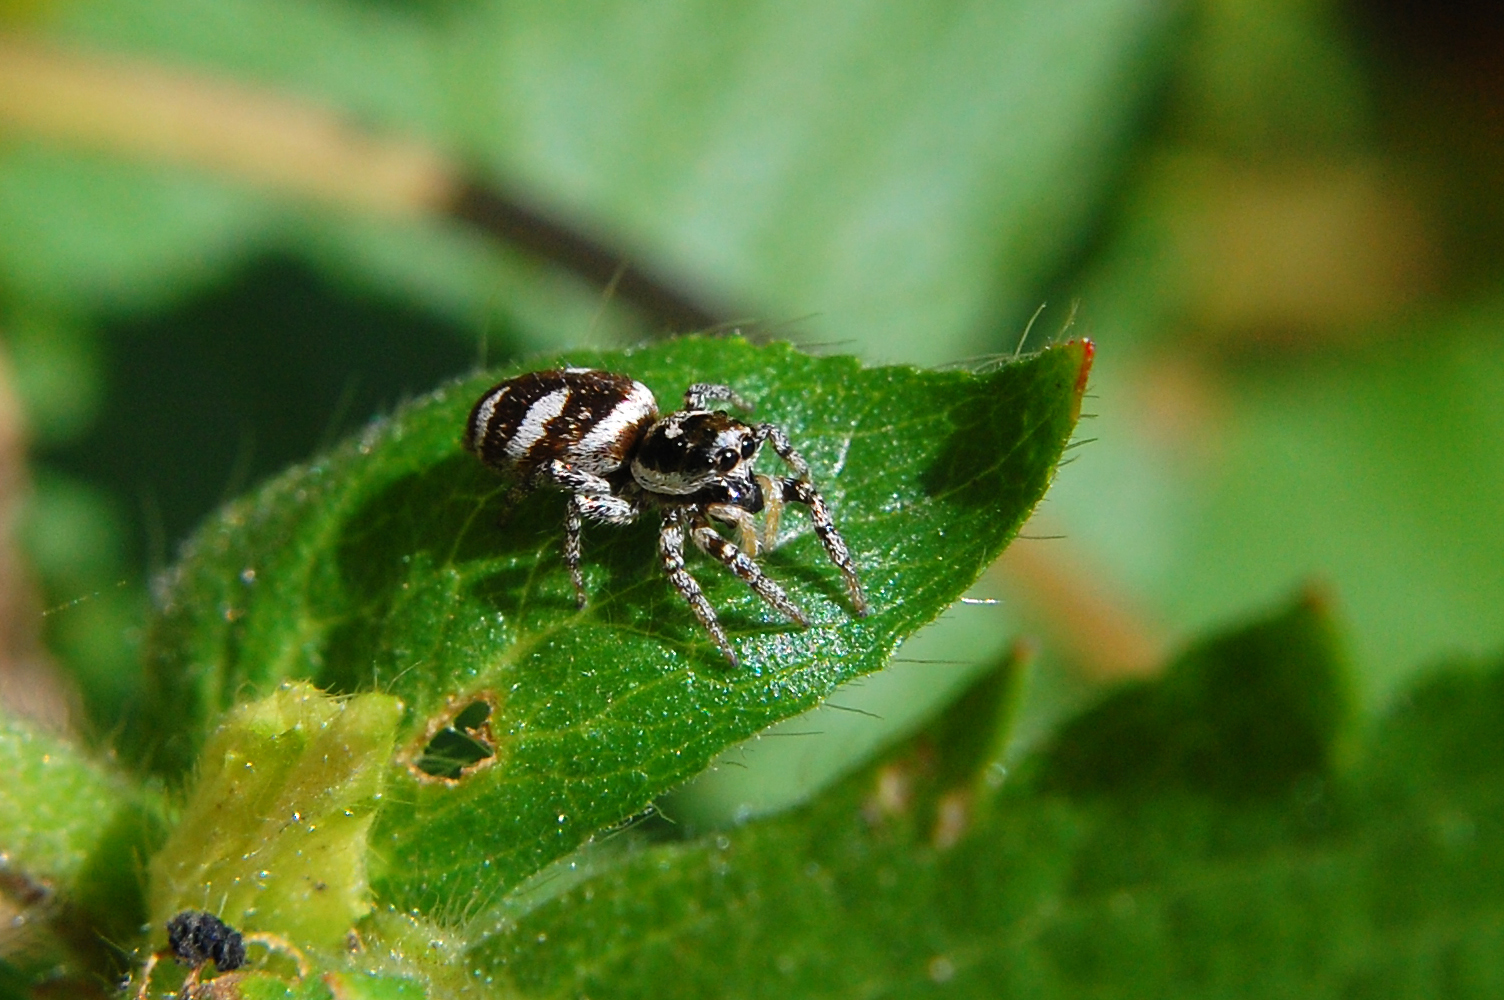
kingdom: Animalia
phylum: Arthropoda
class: Arachnida
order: Araneae
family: Salticidae
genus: Salticus
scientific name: Salticus scenicus
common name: Zebra jumper
